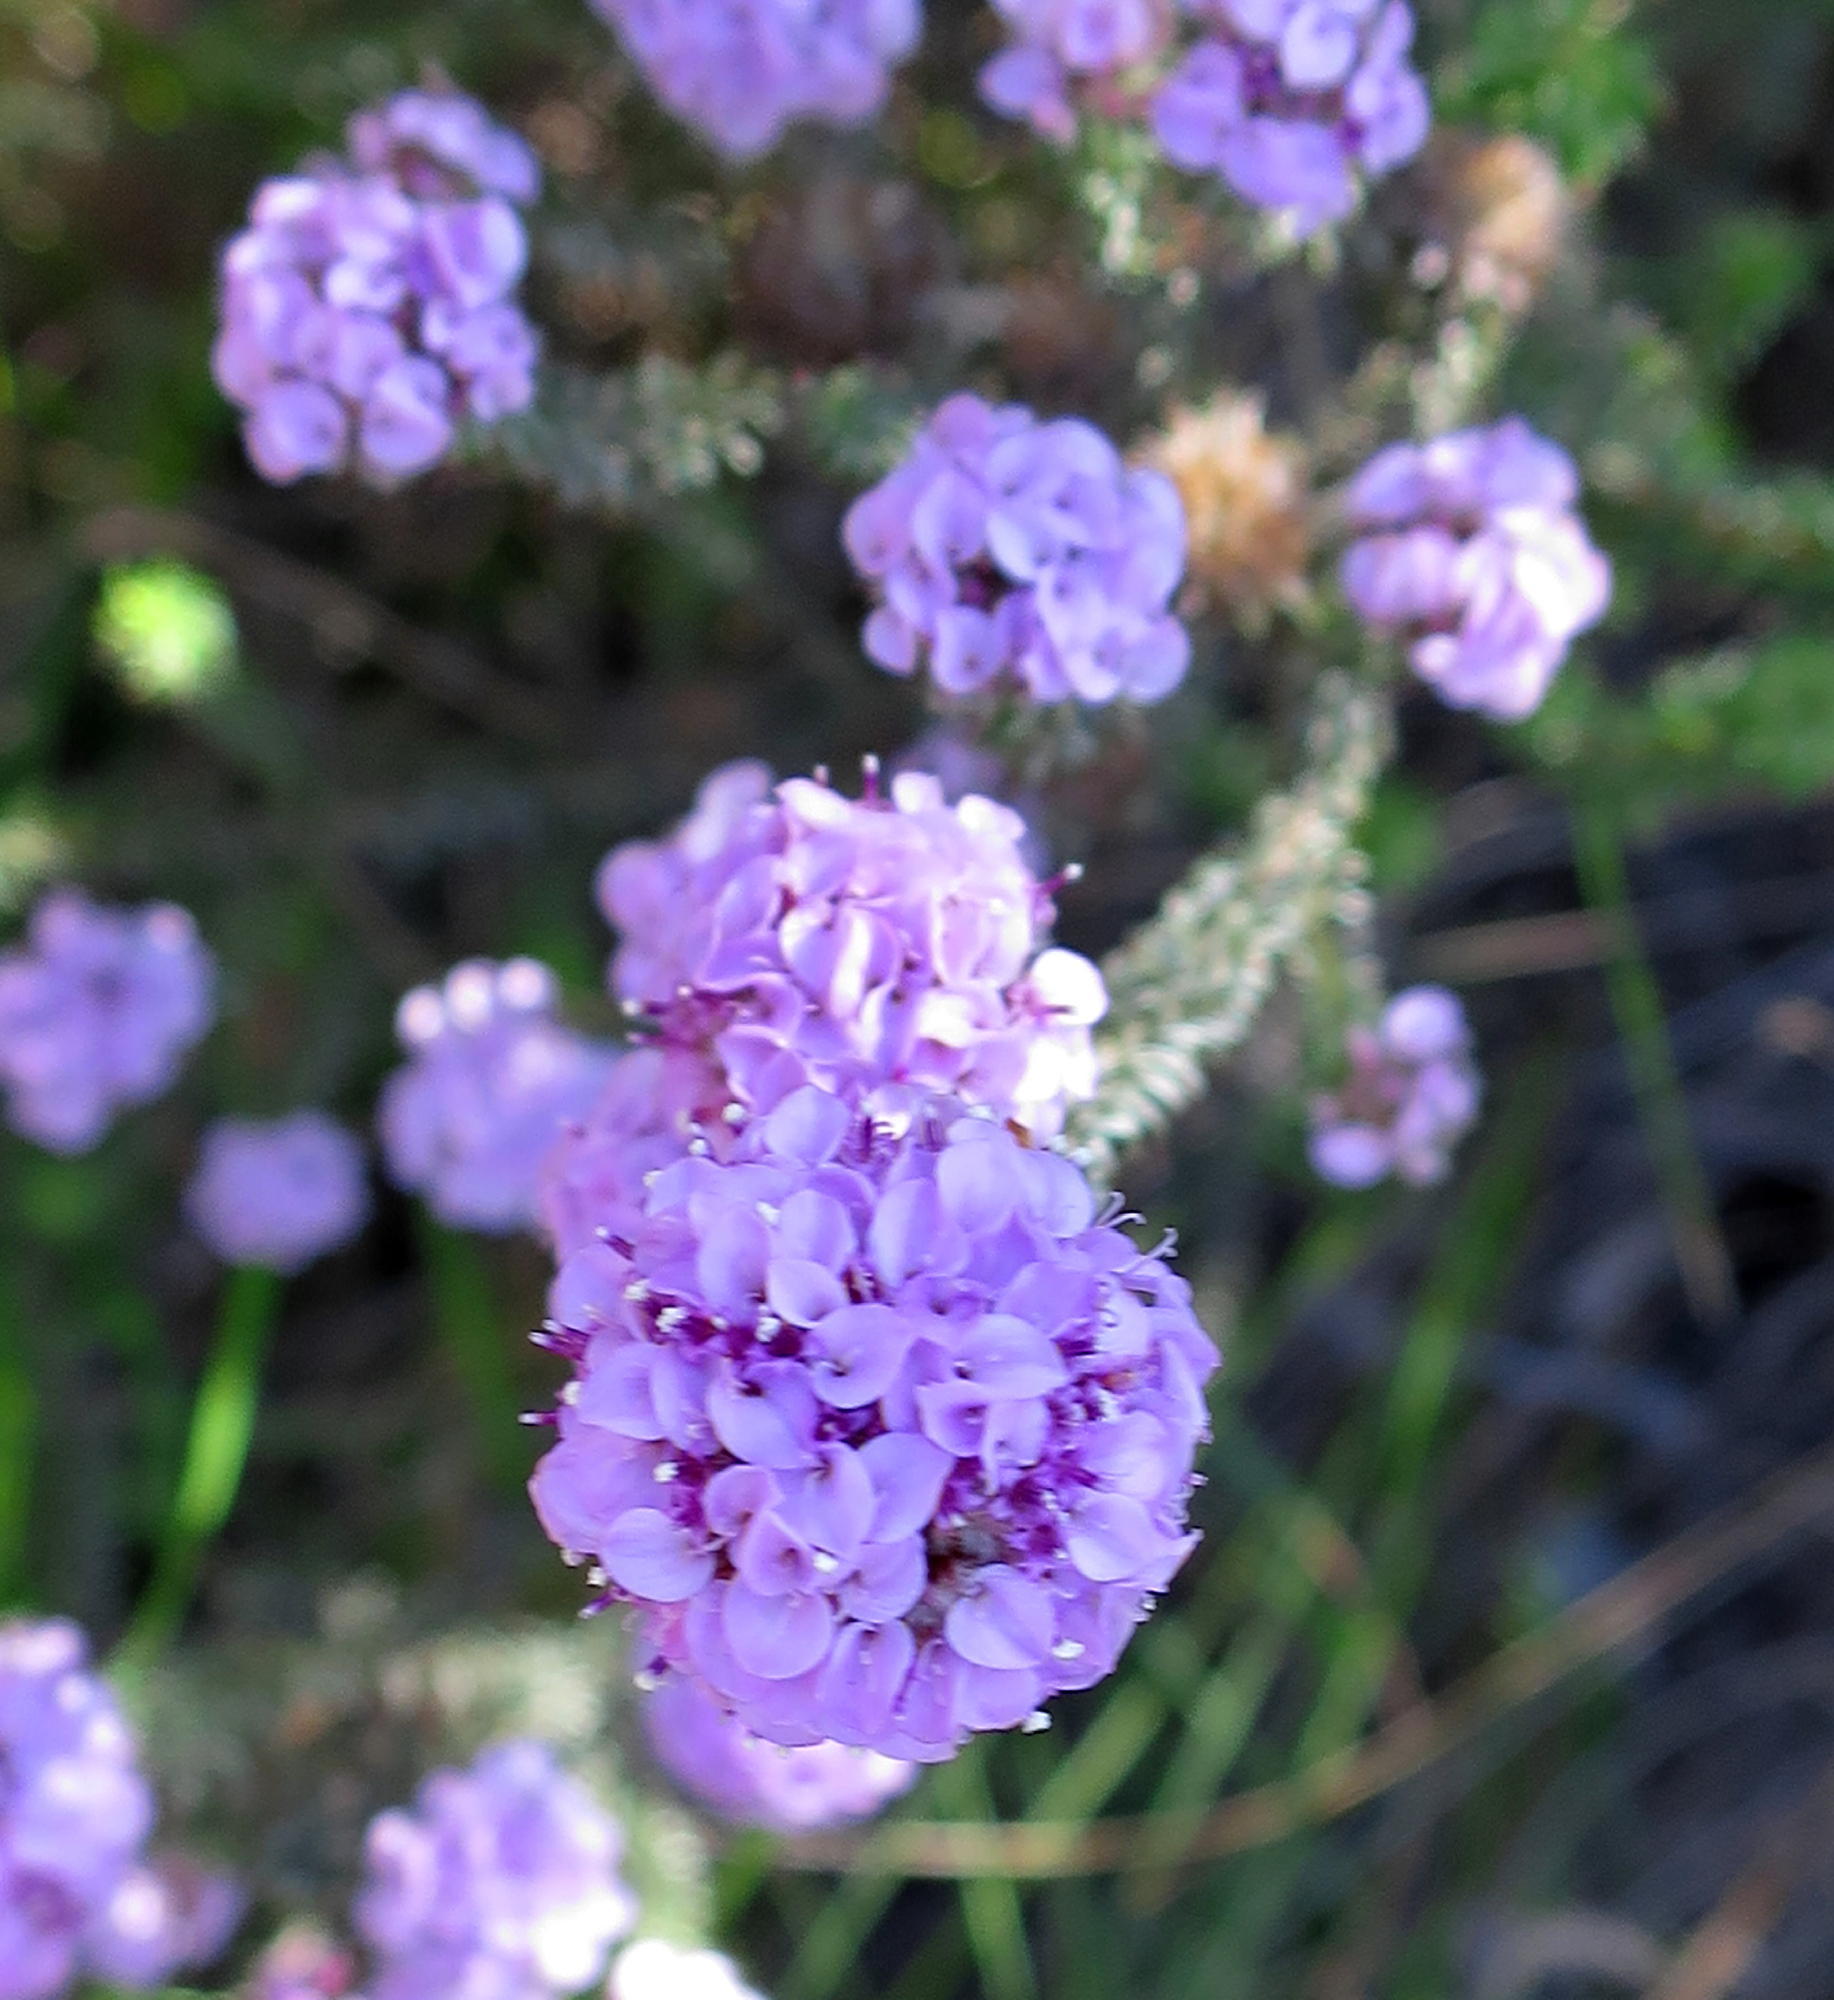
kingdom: Plantae
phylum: Tracheophyta
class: Magnoliopsida
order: Asterales
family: Asteraceae
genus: Disparago
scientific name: Disparago tortilis
